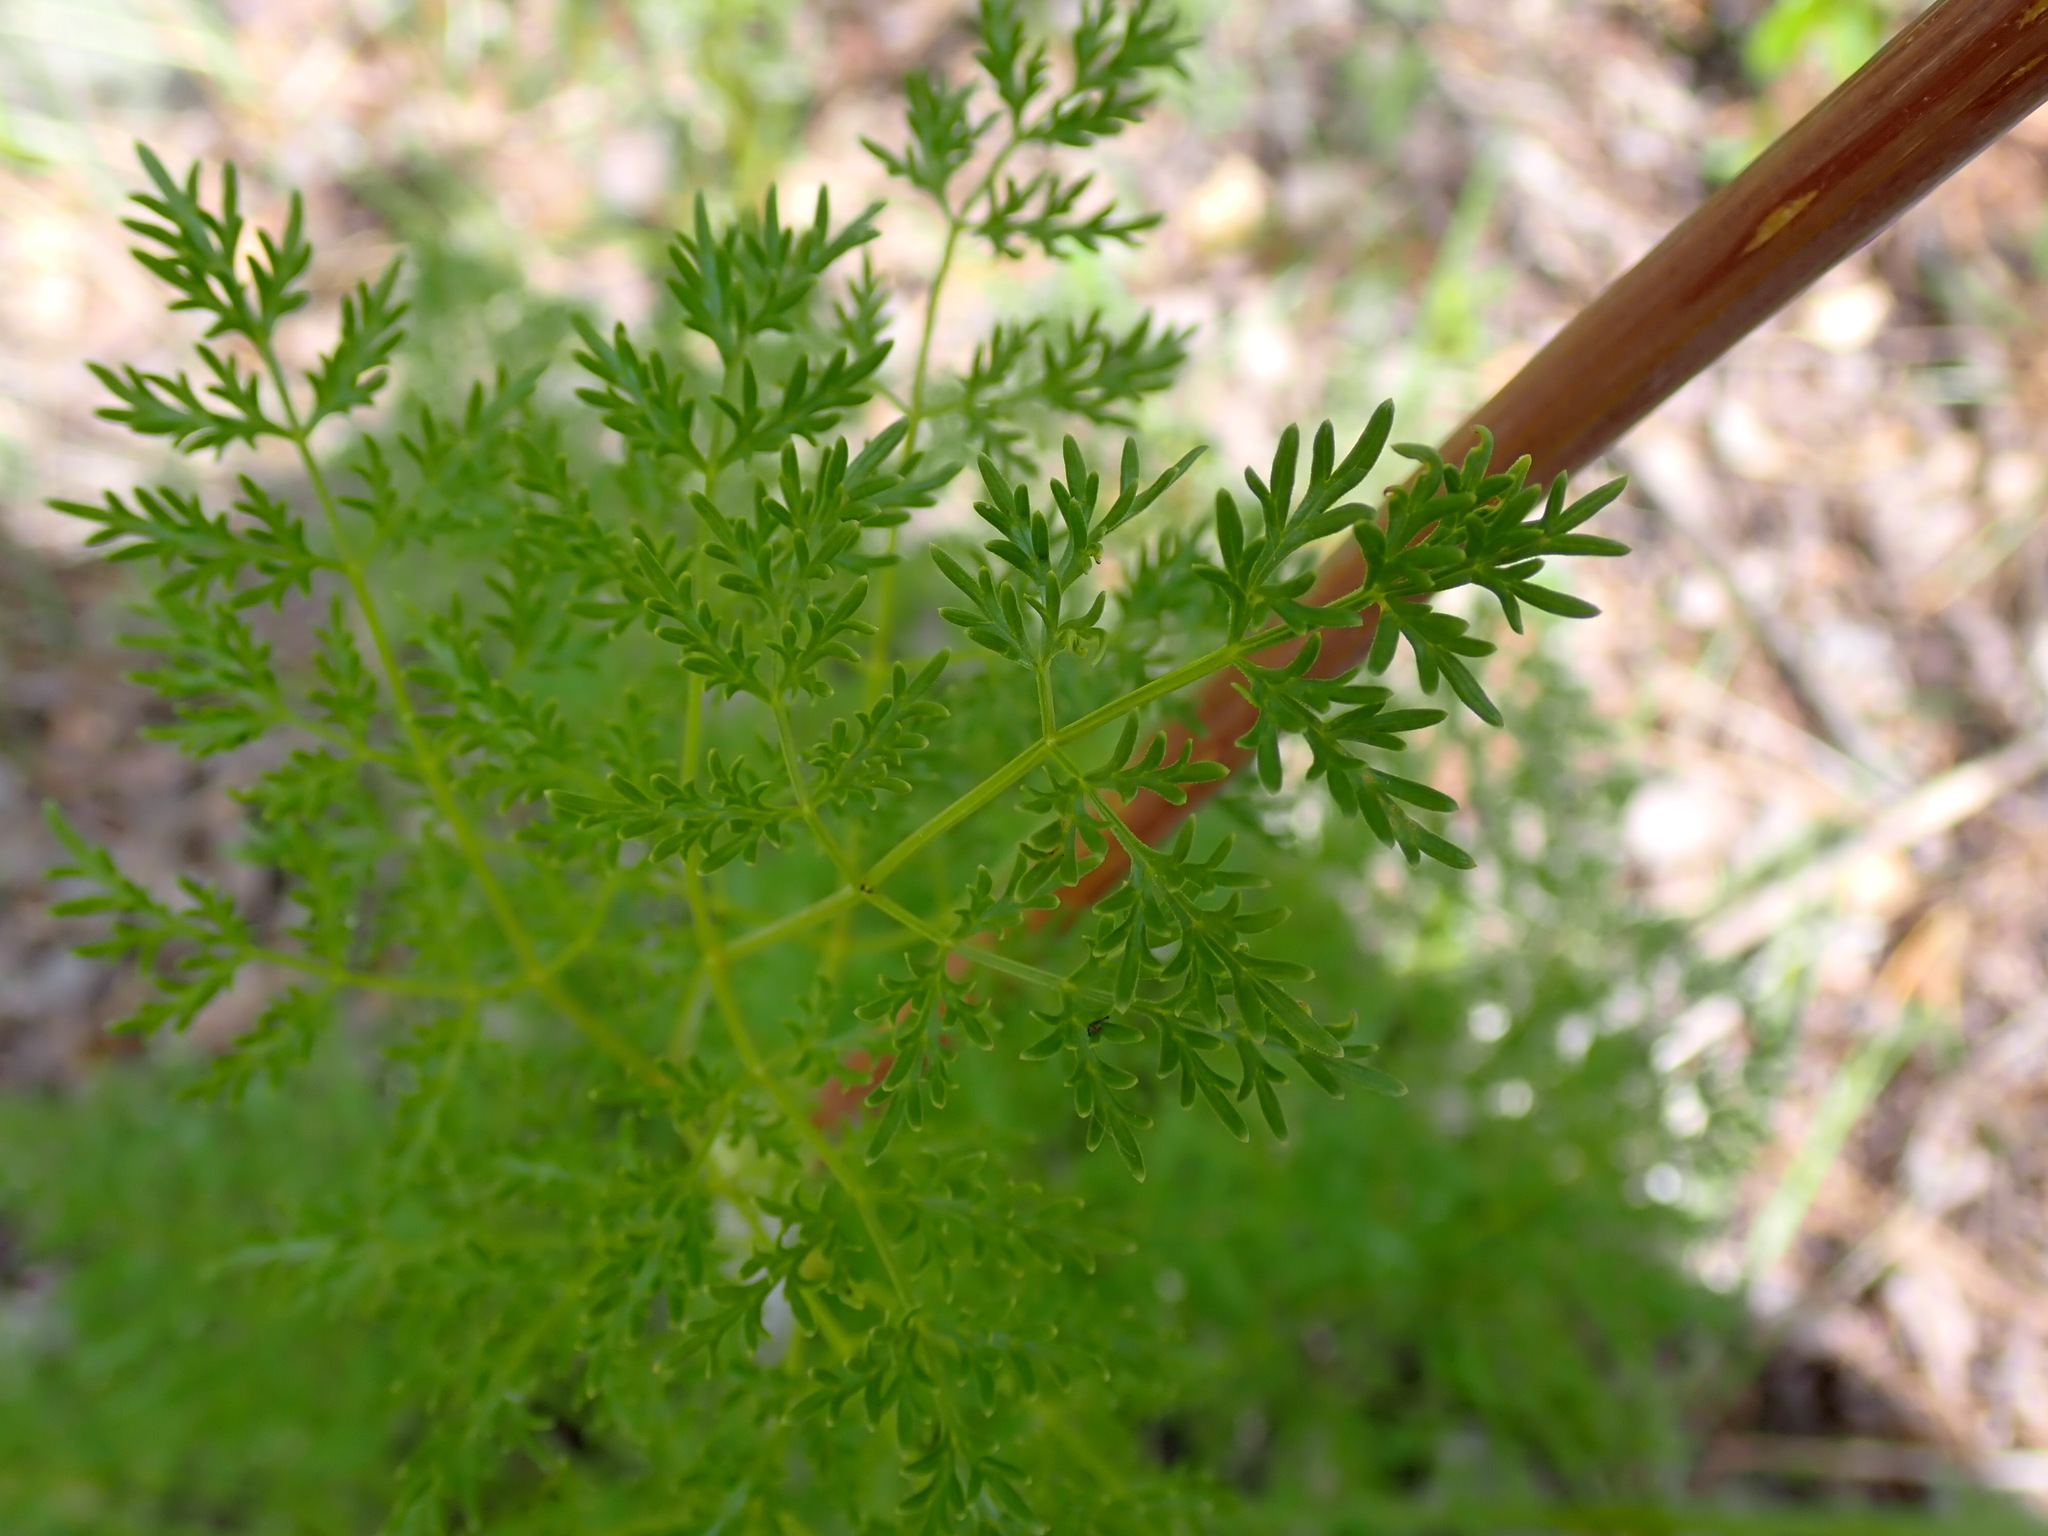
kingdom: Plantae
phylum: Tracheophyta
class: Magnoliopsida
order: Apiales
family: Apiaceae
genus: Lomatium
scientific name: Lomatium multifidum
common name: Carrot-leaved biscuitroot
